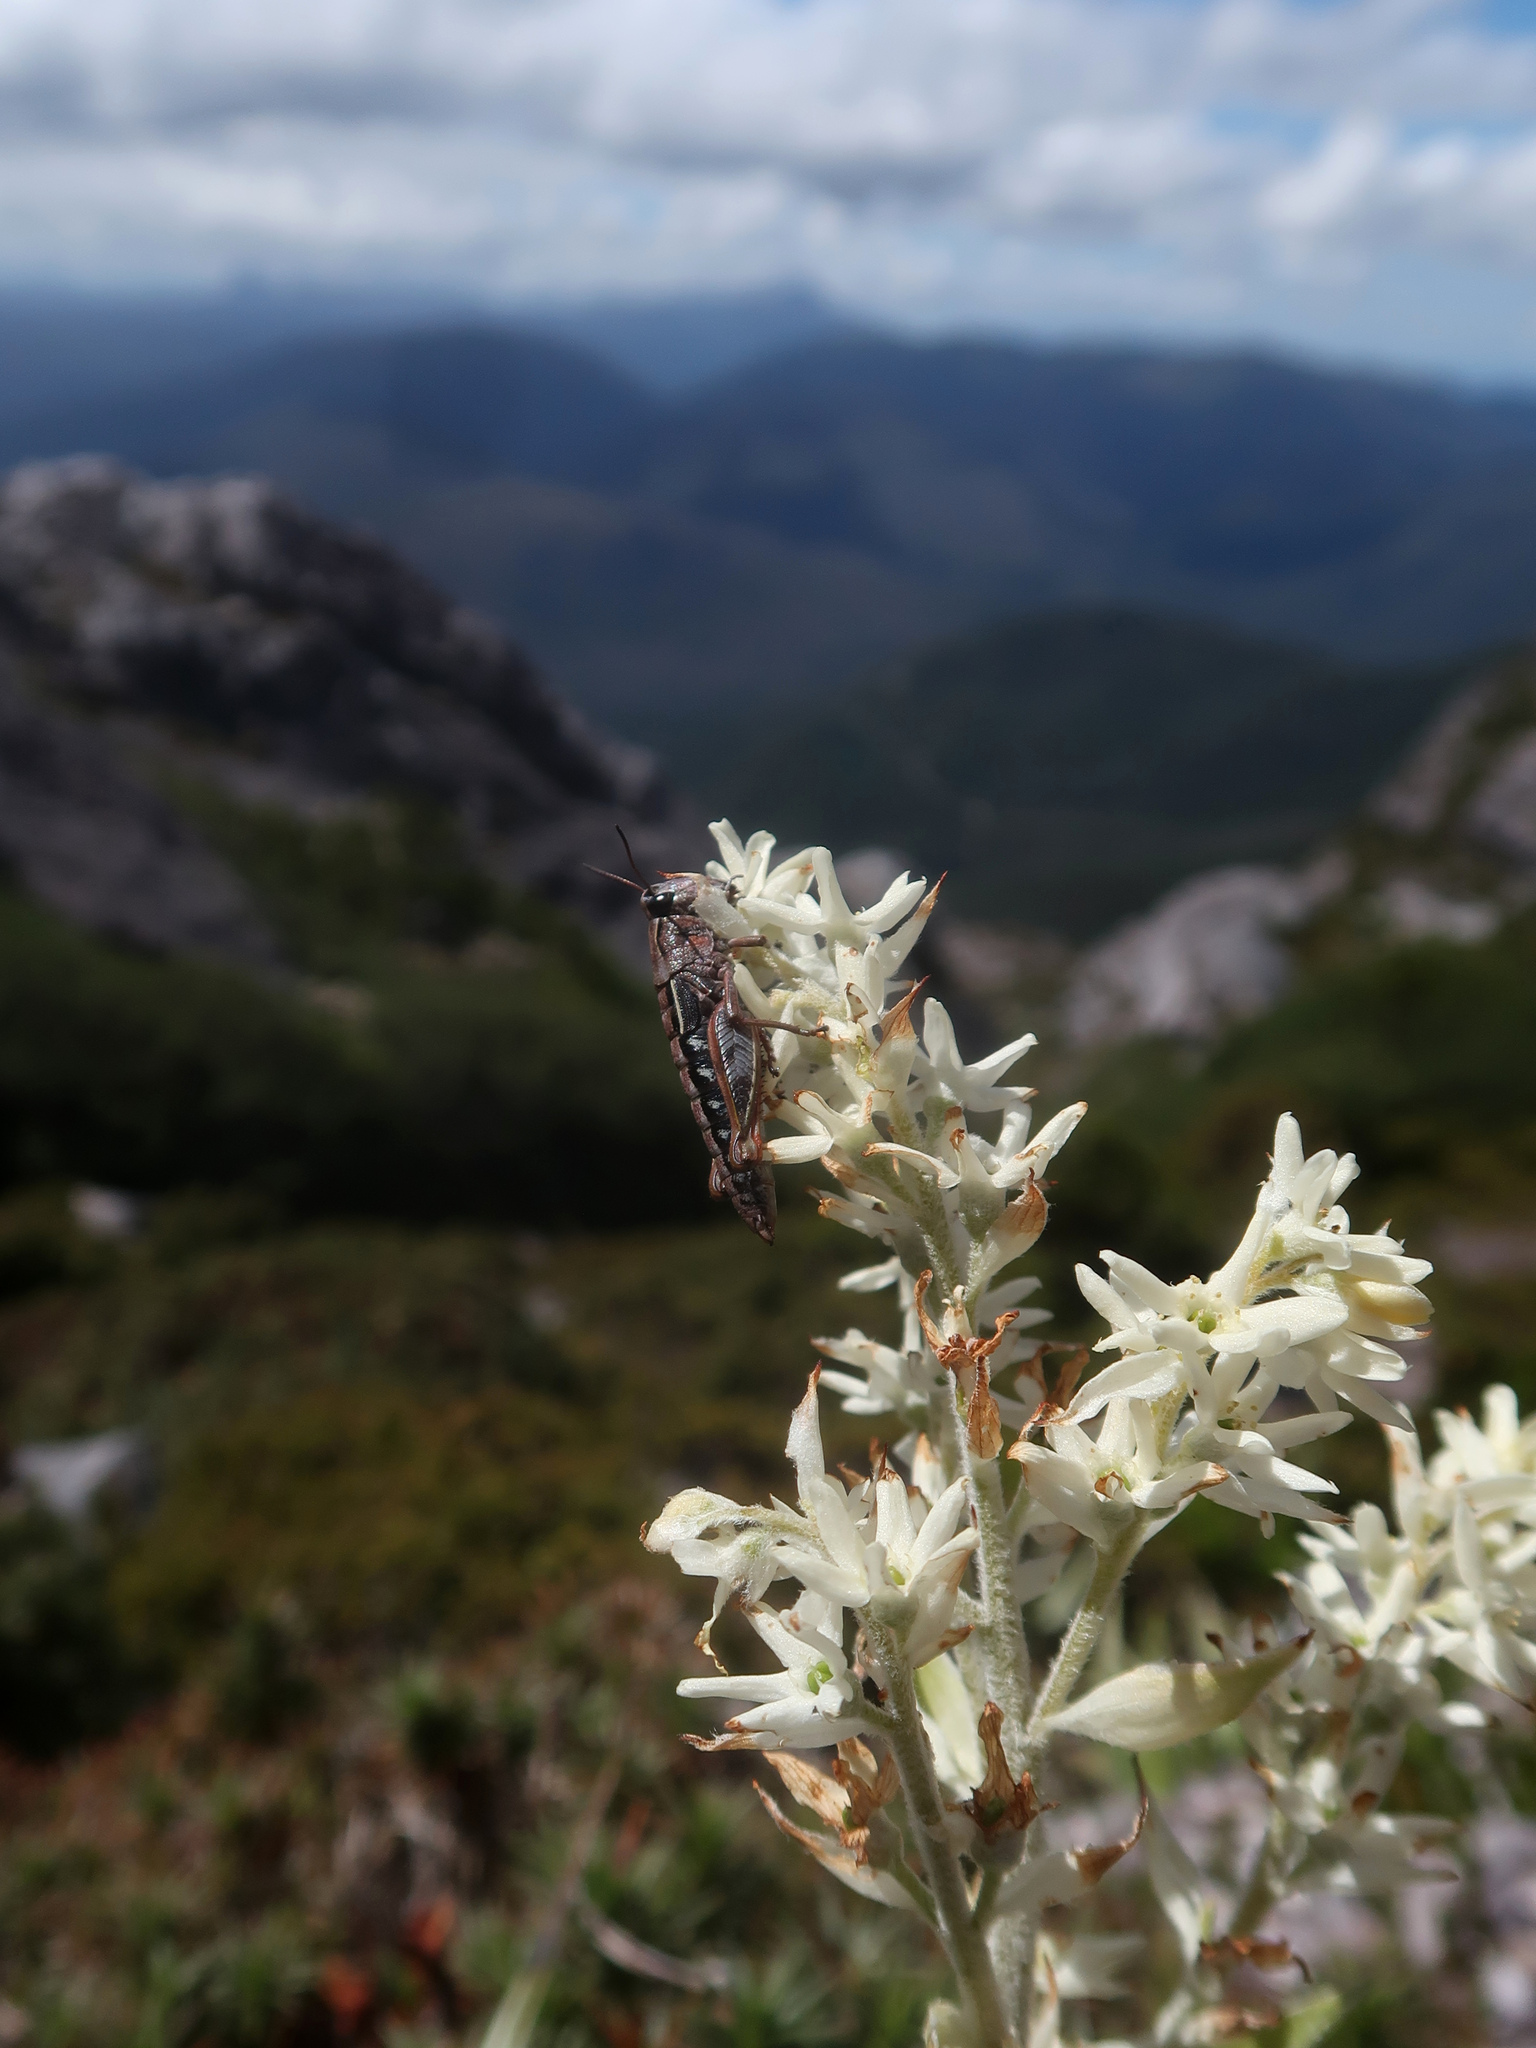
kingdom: Animalia
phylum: Arthropoda
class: Insecta
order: Orthoptera
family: Acrididae
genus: Russalpia
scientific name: Russalpia longifurca
